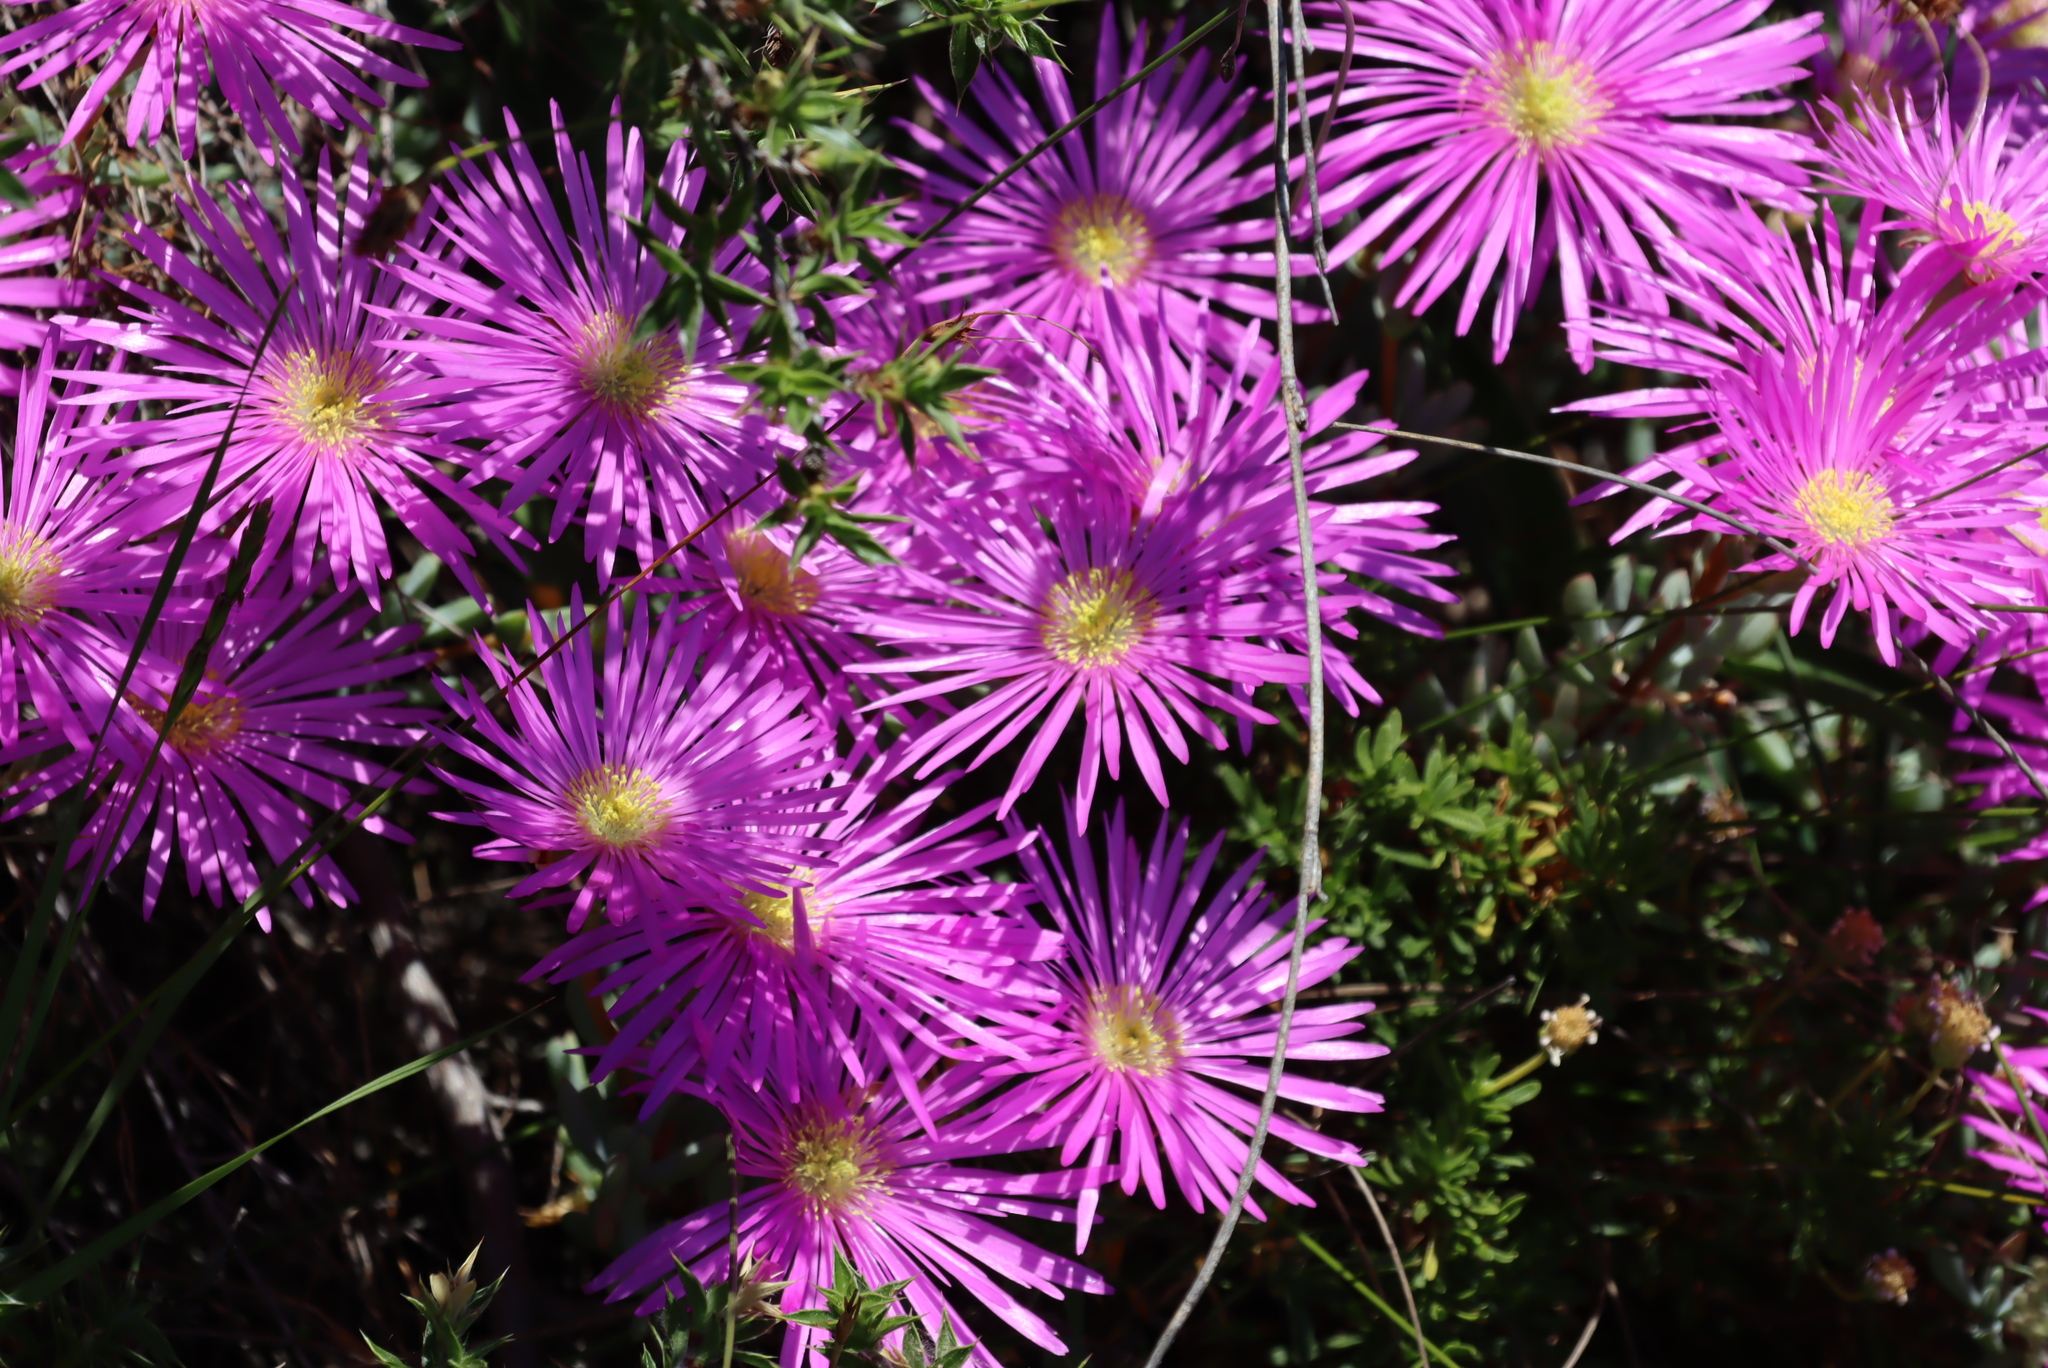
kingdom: Plantae
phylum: Tracheophyta
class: Magnoliopsida
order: Caryophyllales
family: Aizoaceae
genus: Oscularia
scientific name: Oscularia falciformis
